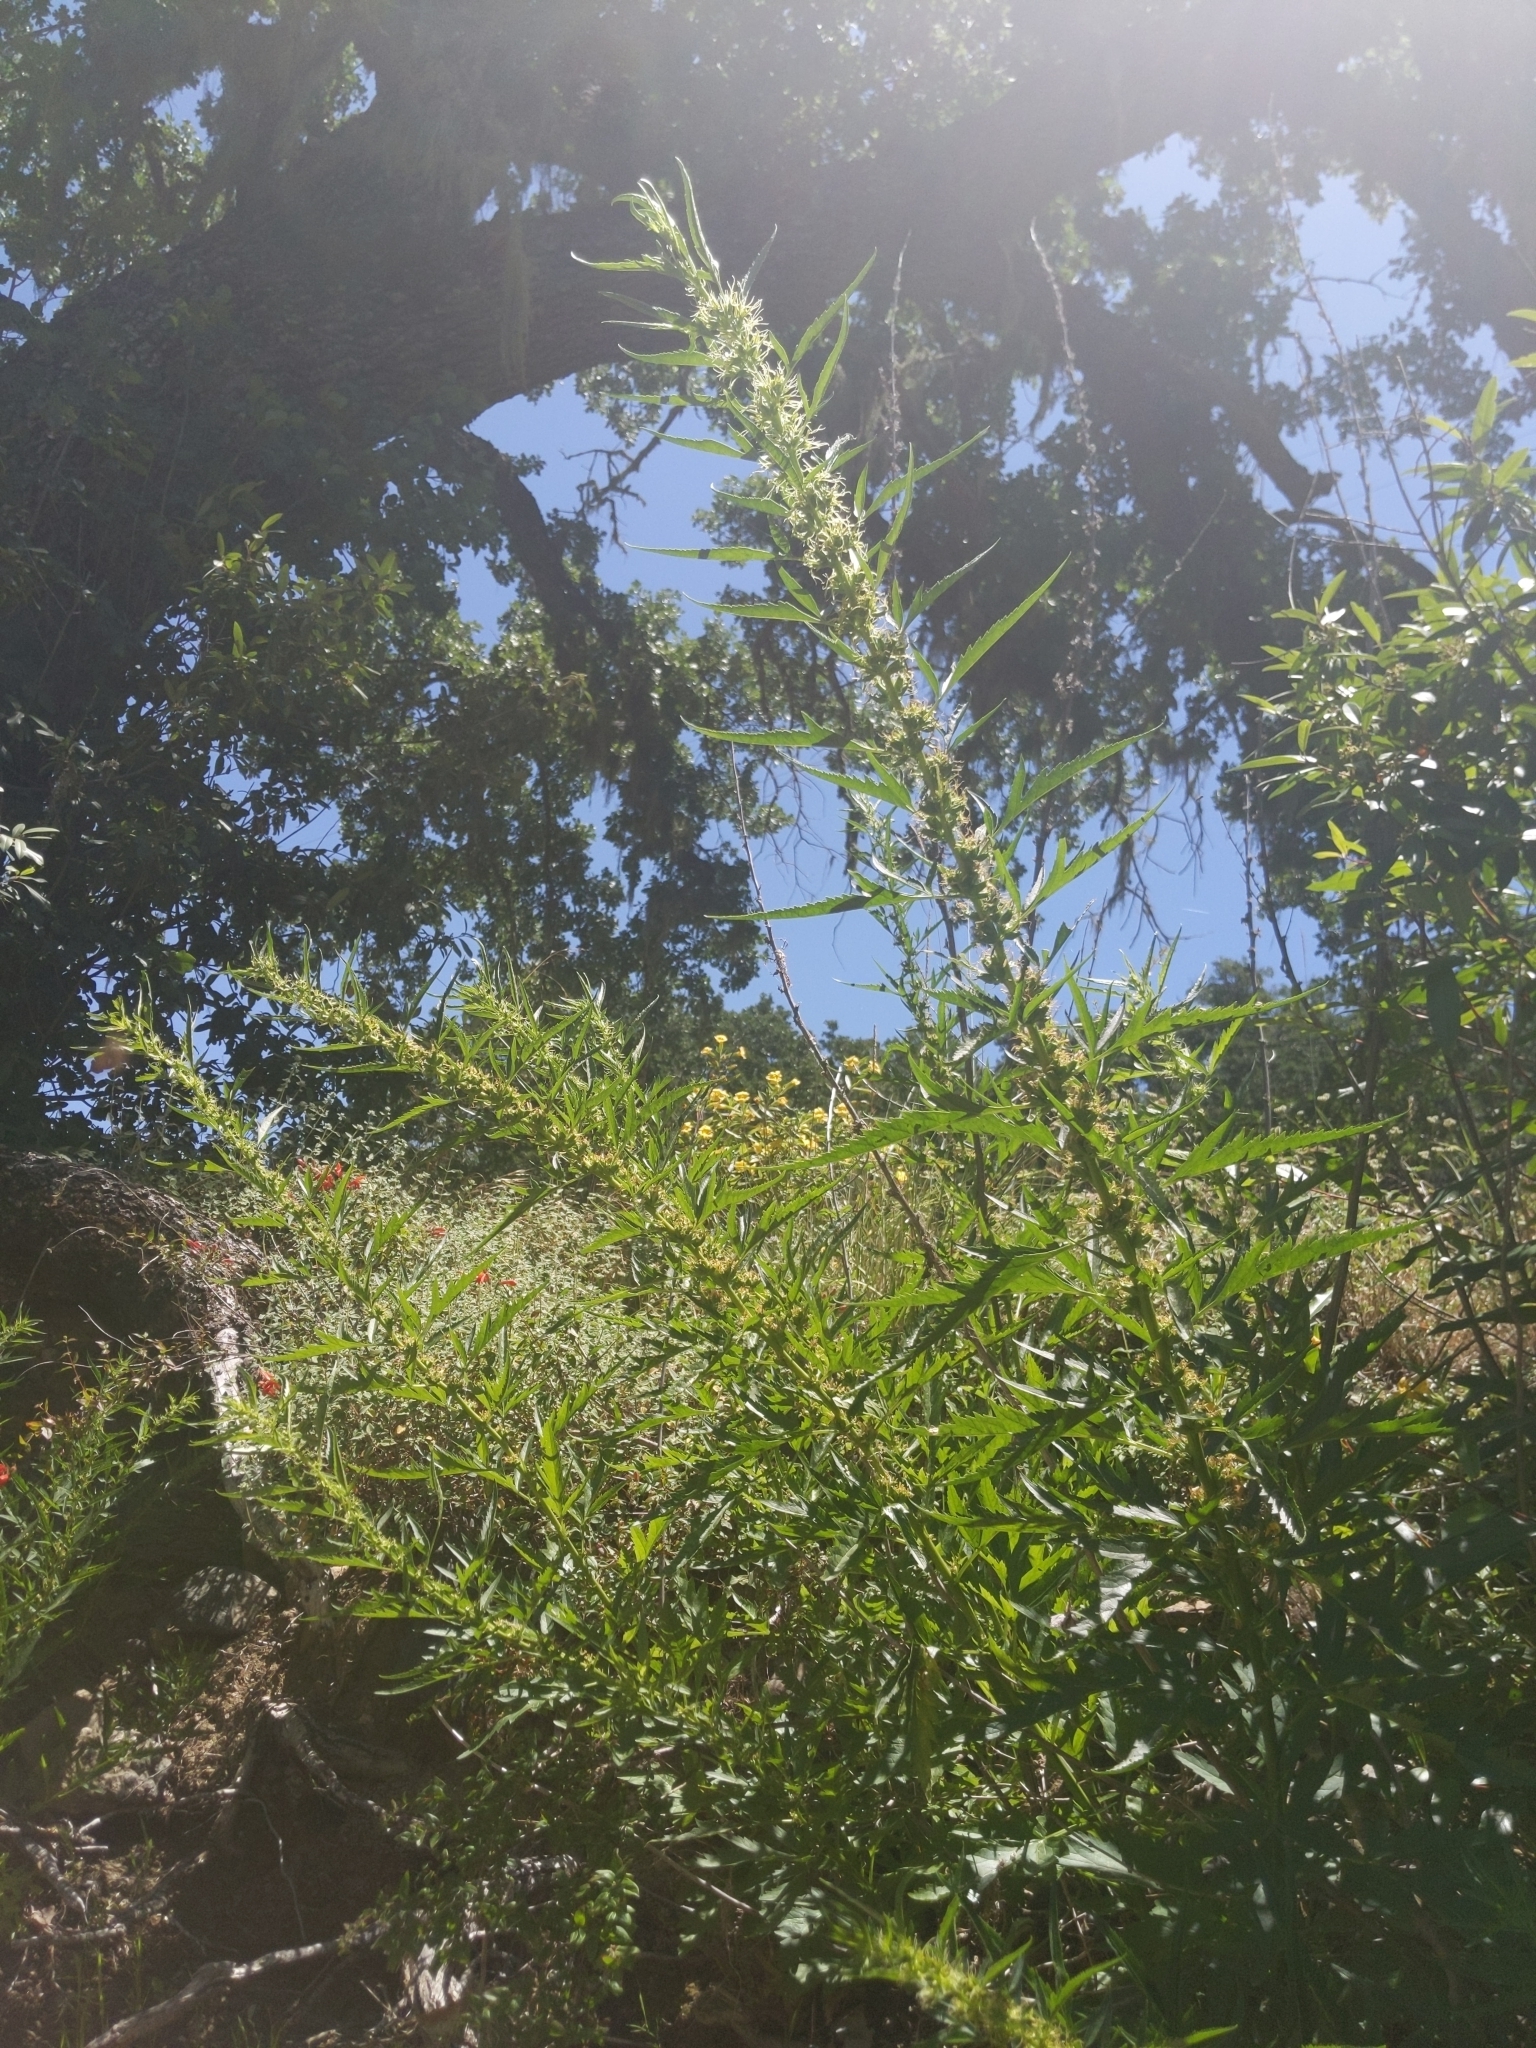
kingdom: Plantae
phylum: Tracheophyta
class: Magnoliopsida
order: Cucurbitales
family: Datiscaceae
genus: Datisca
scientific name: Datisca glomerata
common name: Durango-root
